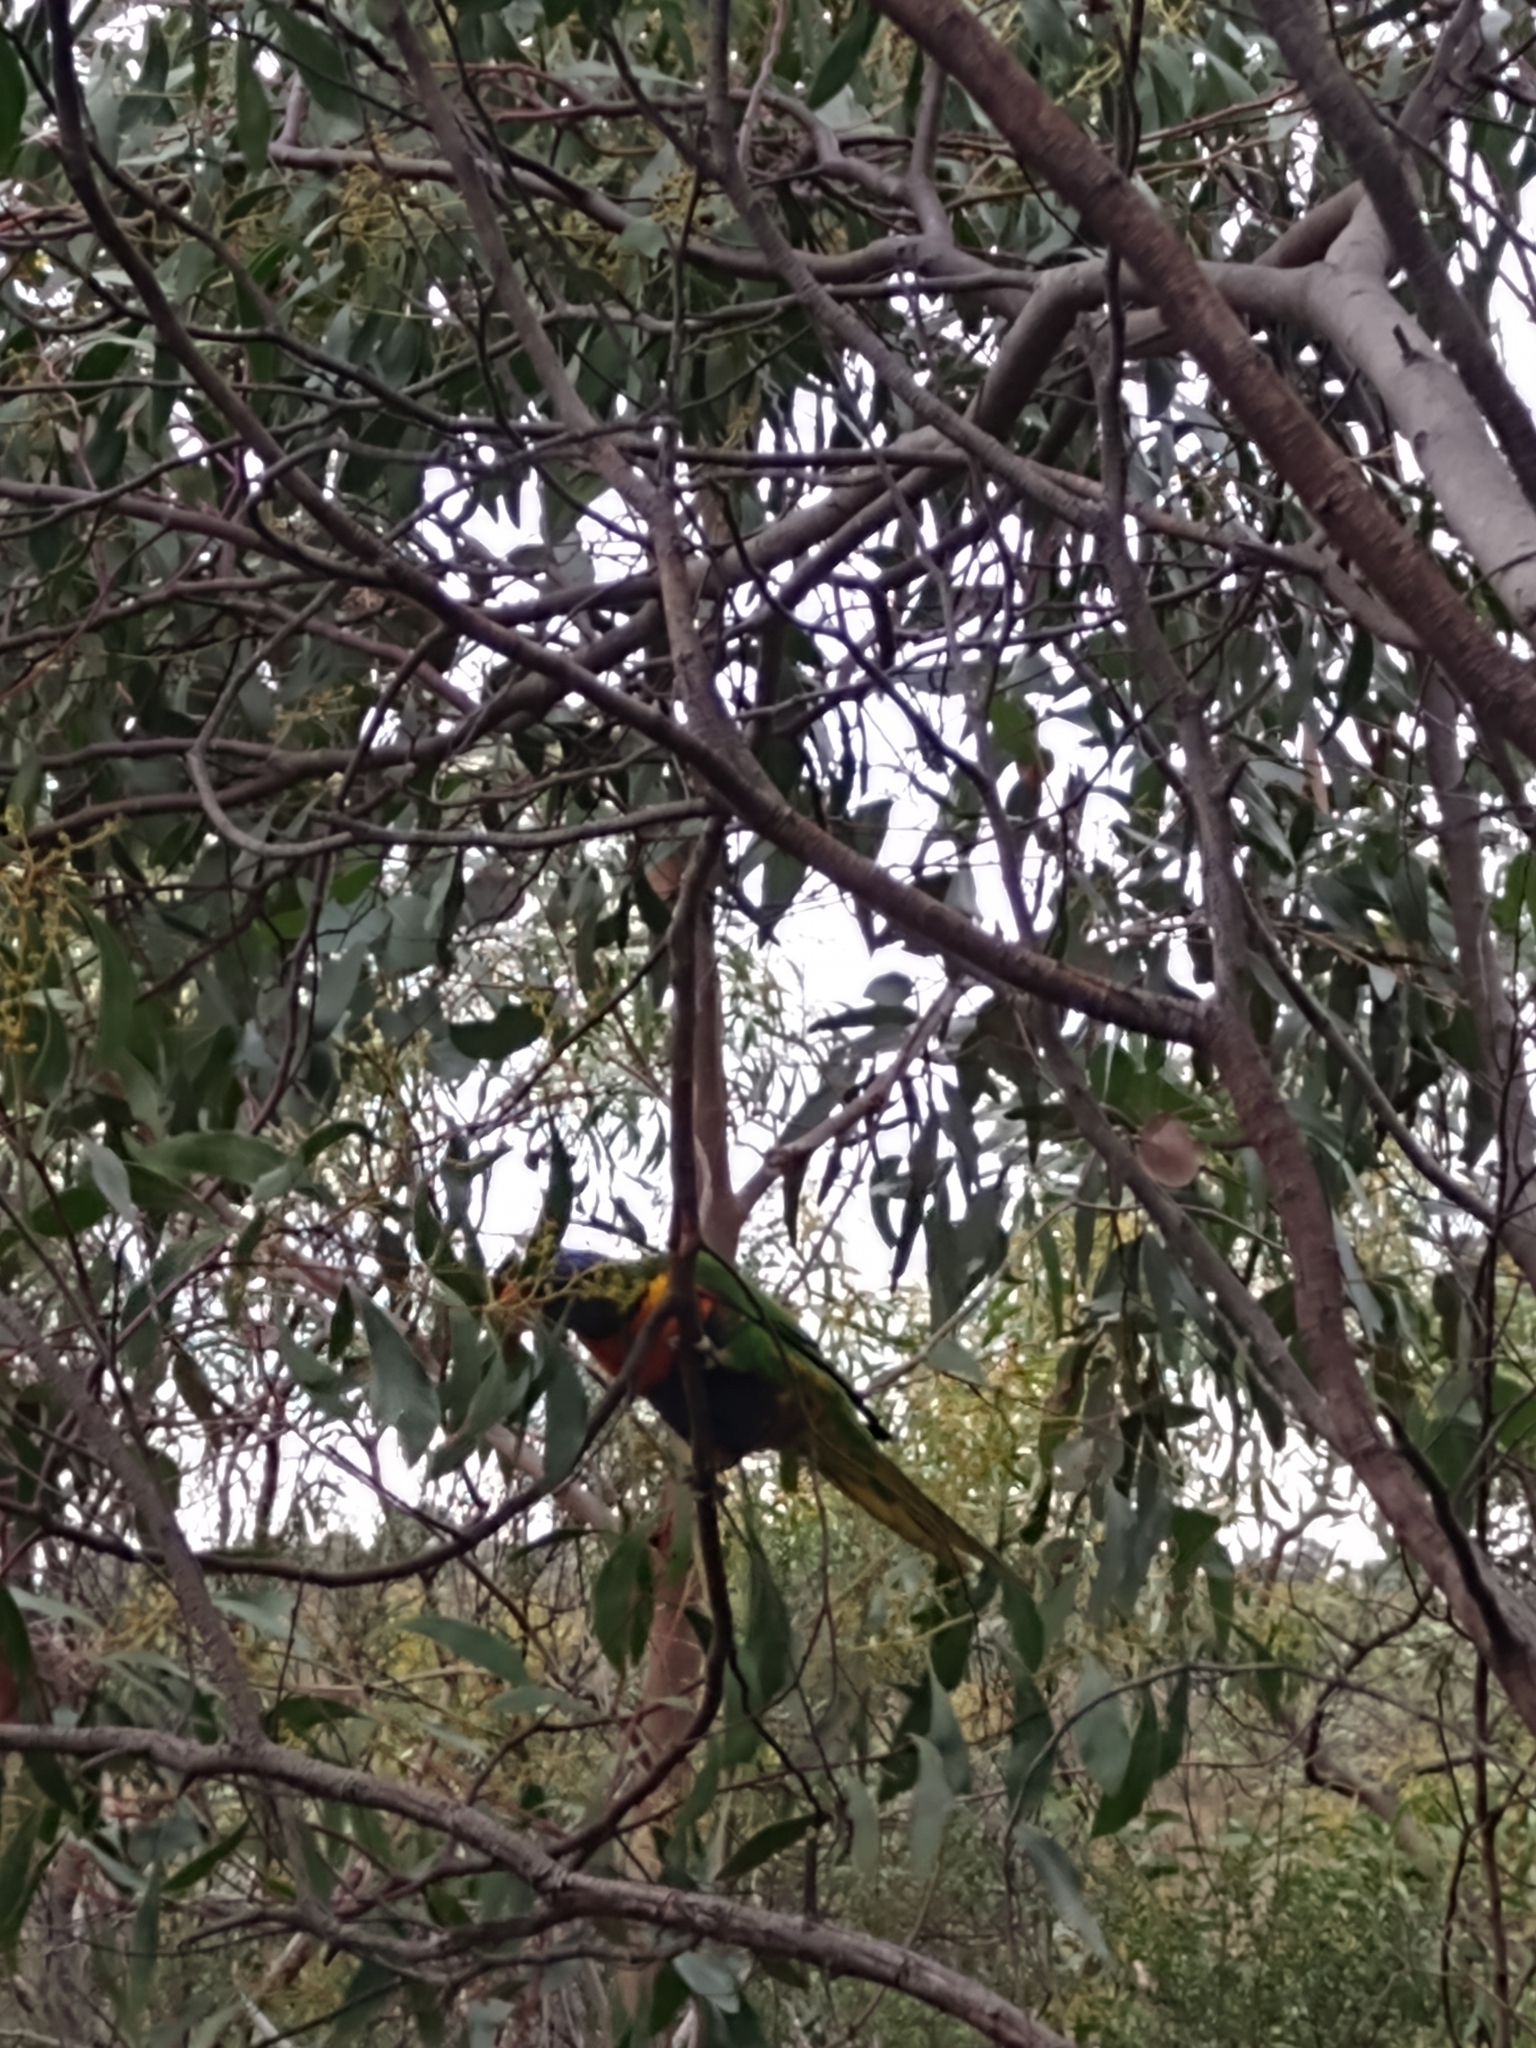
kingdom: Animalia
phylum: Chordata
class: Aves
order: Psittaciformes
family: Psittacidae
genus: Trichoglossus
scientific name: Trichoglossus haematodus
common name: Coconut lorikeet
